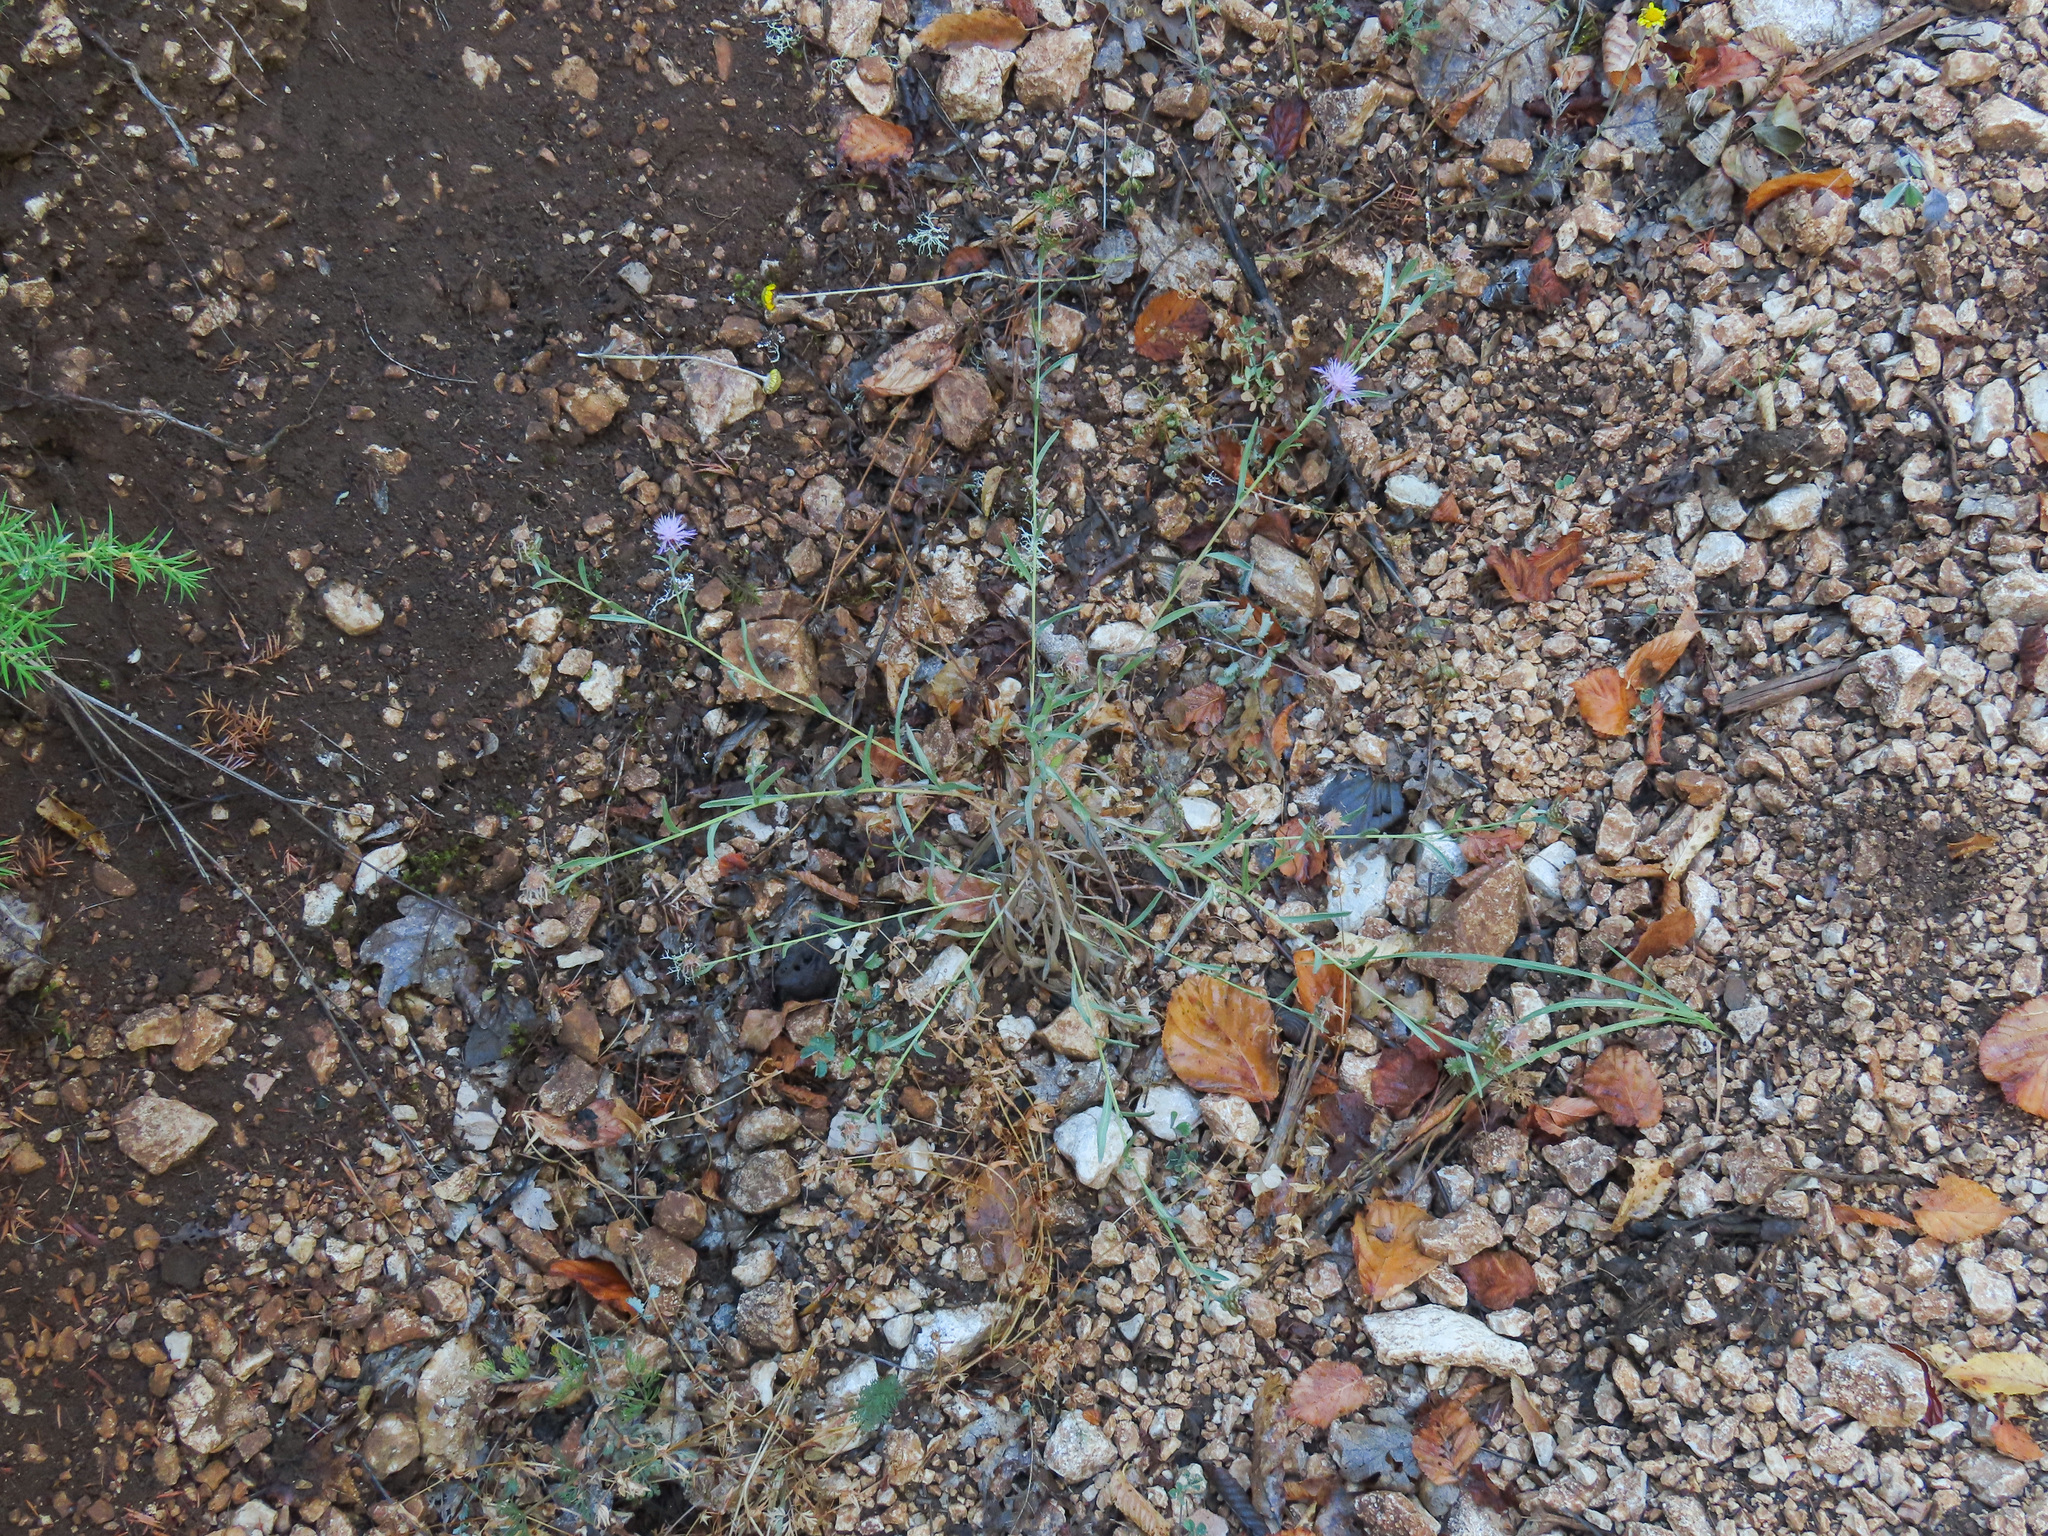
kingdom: Plantae
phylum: Tracheophyta
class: Magnoliopsida
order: Asterales
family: Asteraceae
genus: Centaurea
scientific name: Centaurea jacea
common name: Brown knapweed
